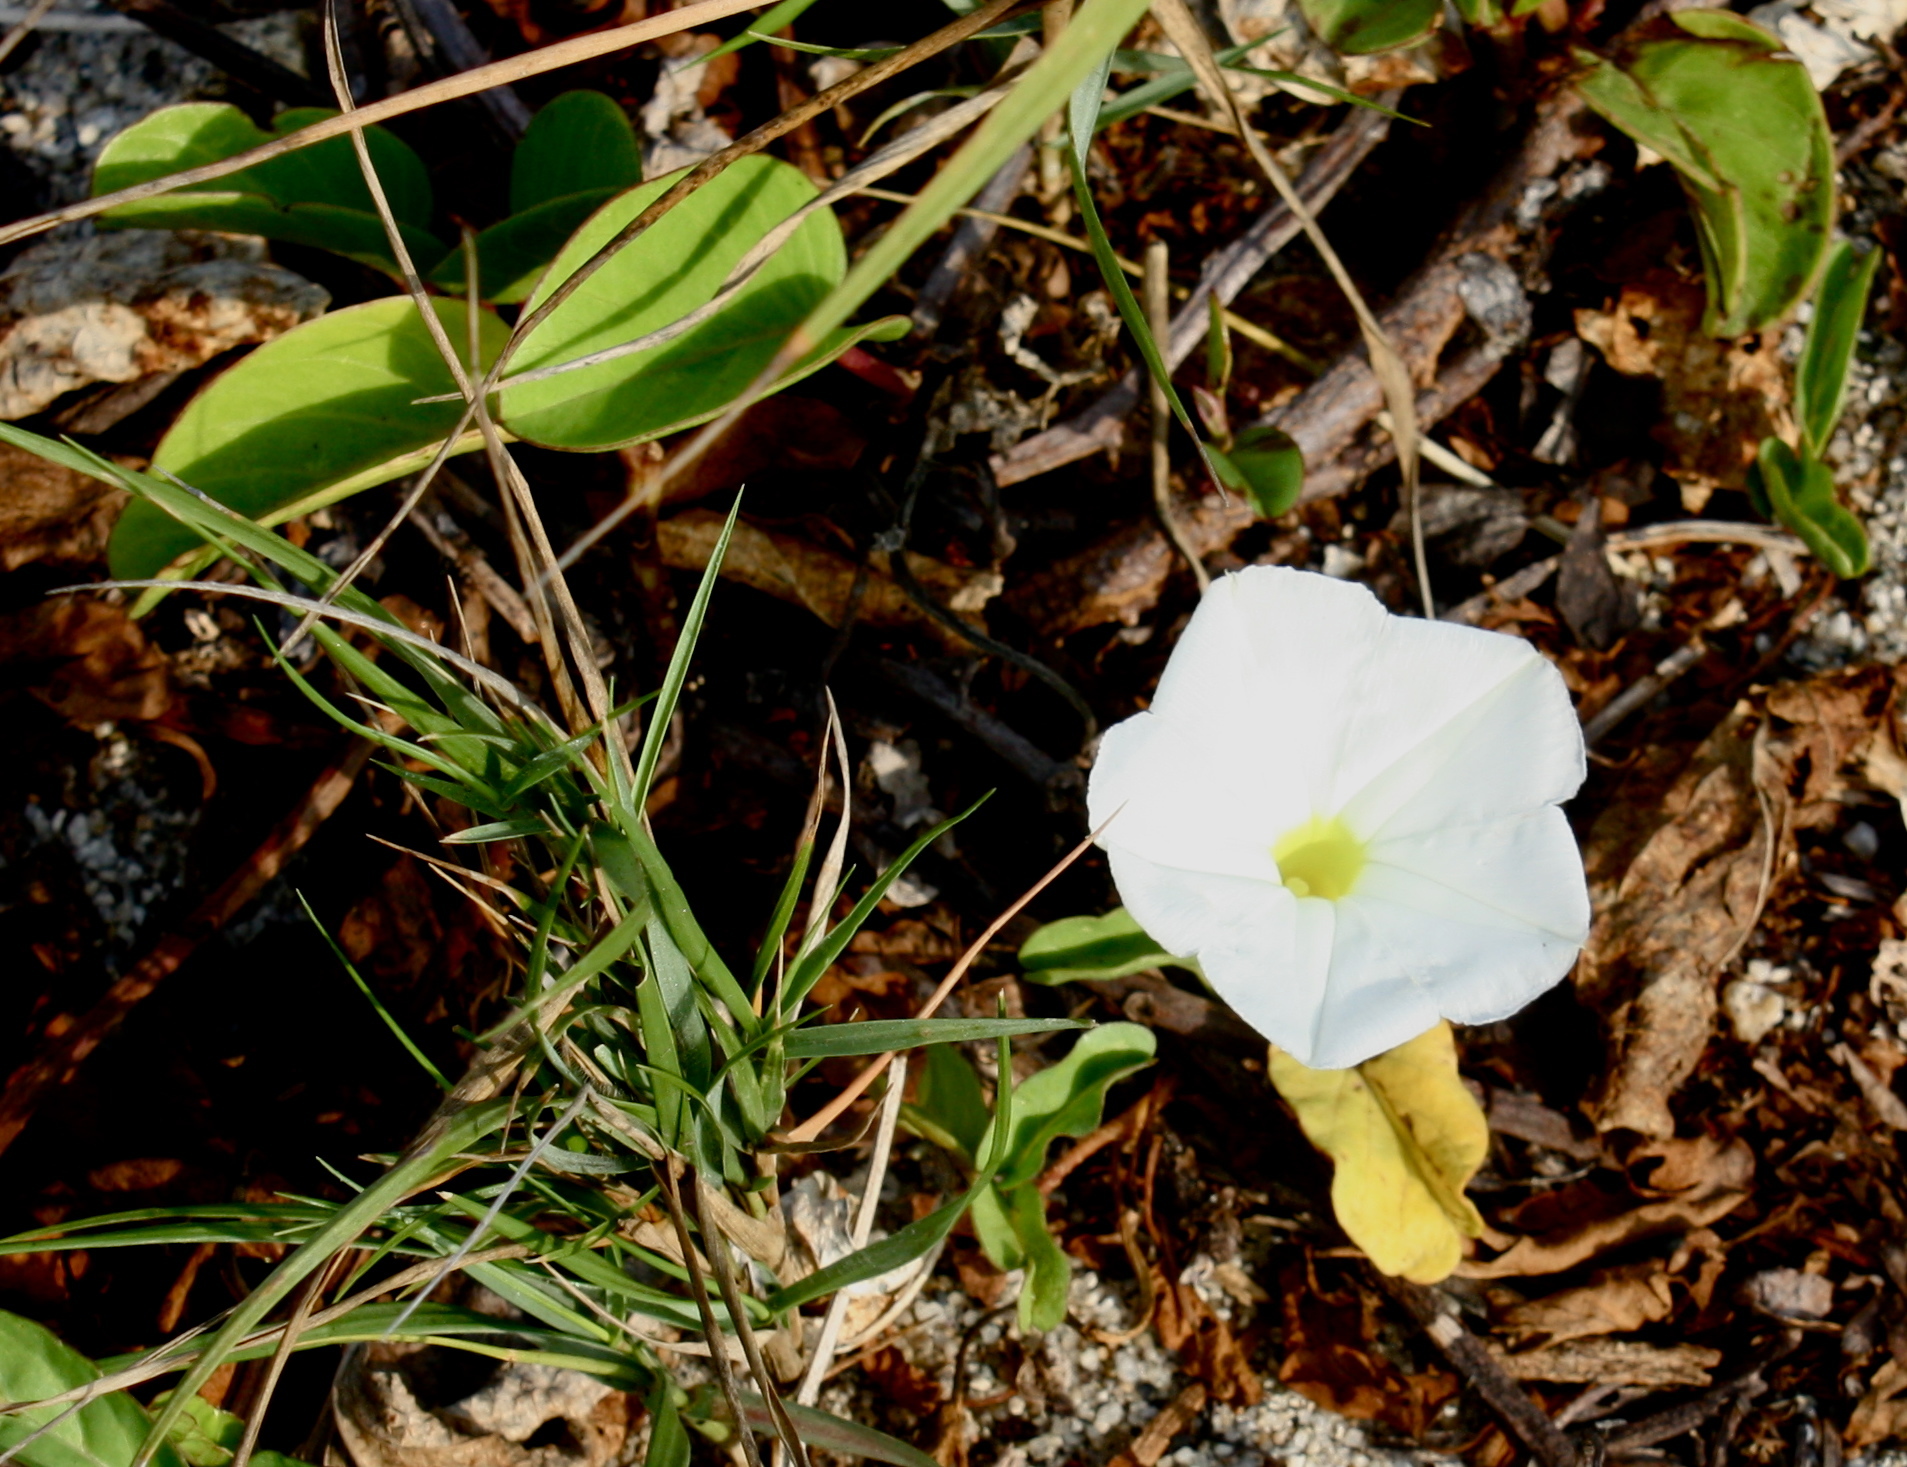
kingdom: Plantae
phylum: Tracheophyta
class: Magnoliopsida
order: Solanales
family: Convolvulaceae
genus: Ipomoea
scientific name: Ipomoea imperati
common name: Fiddle-leaf morning-glory
